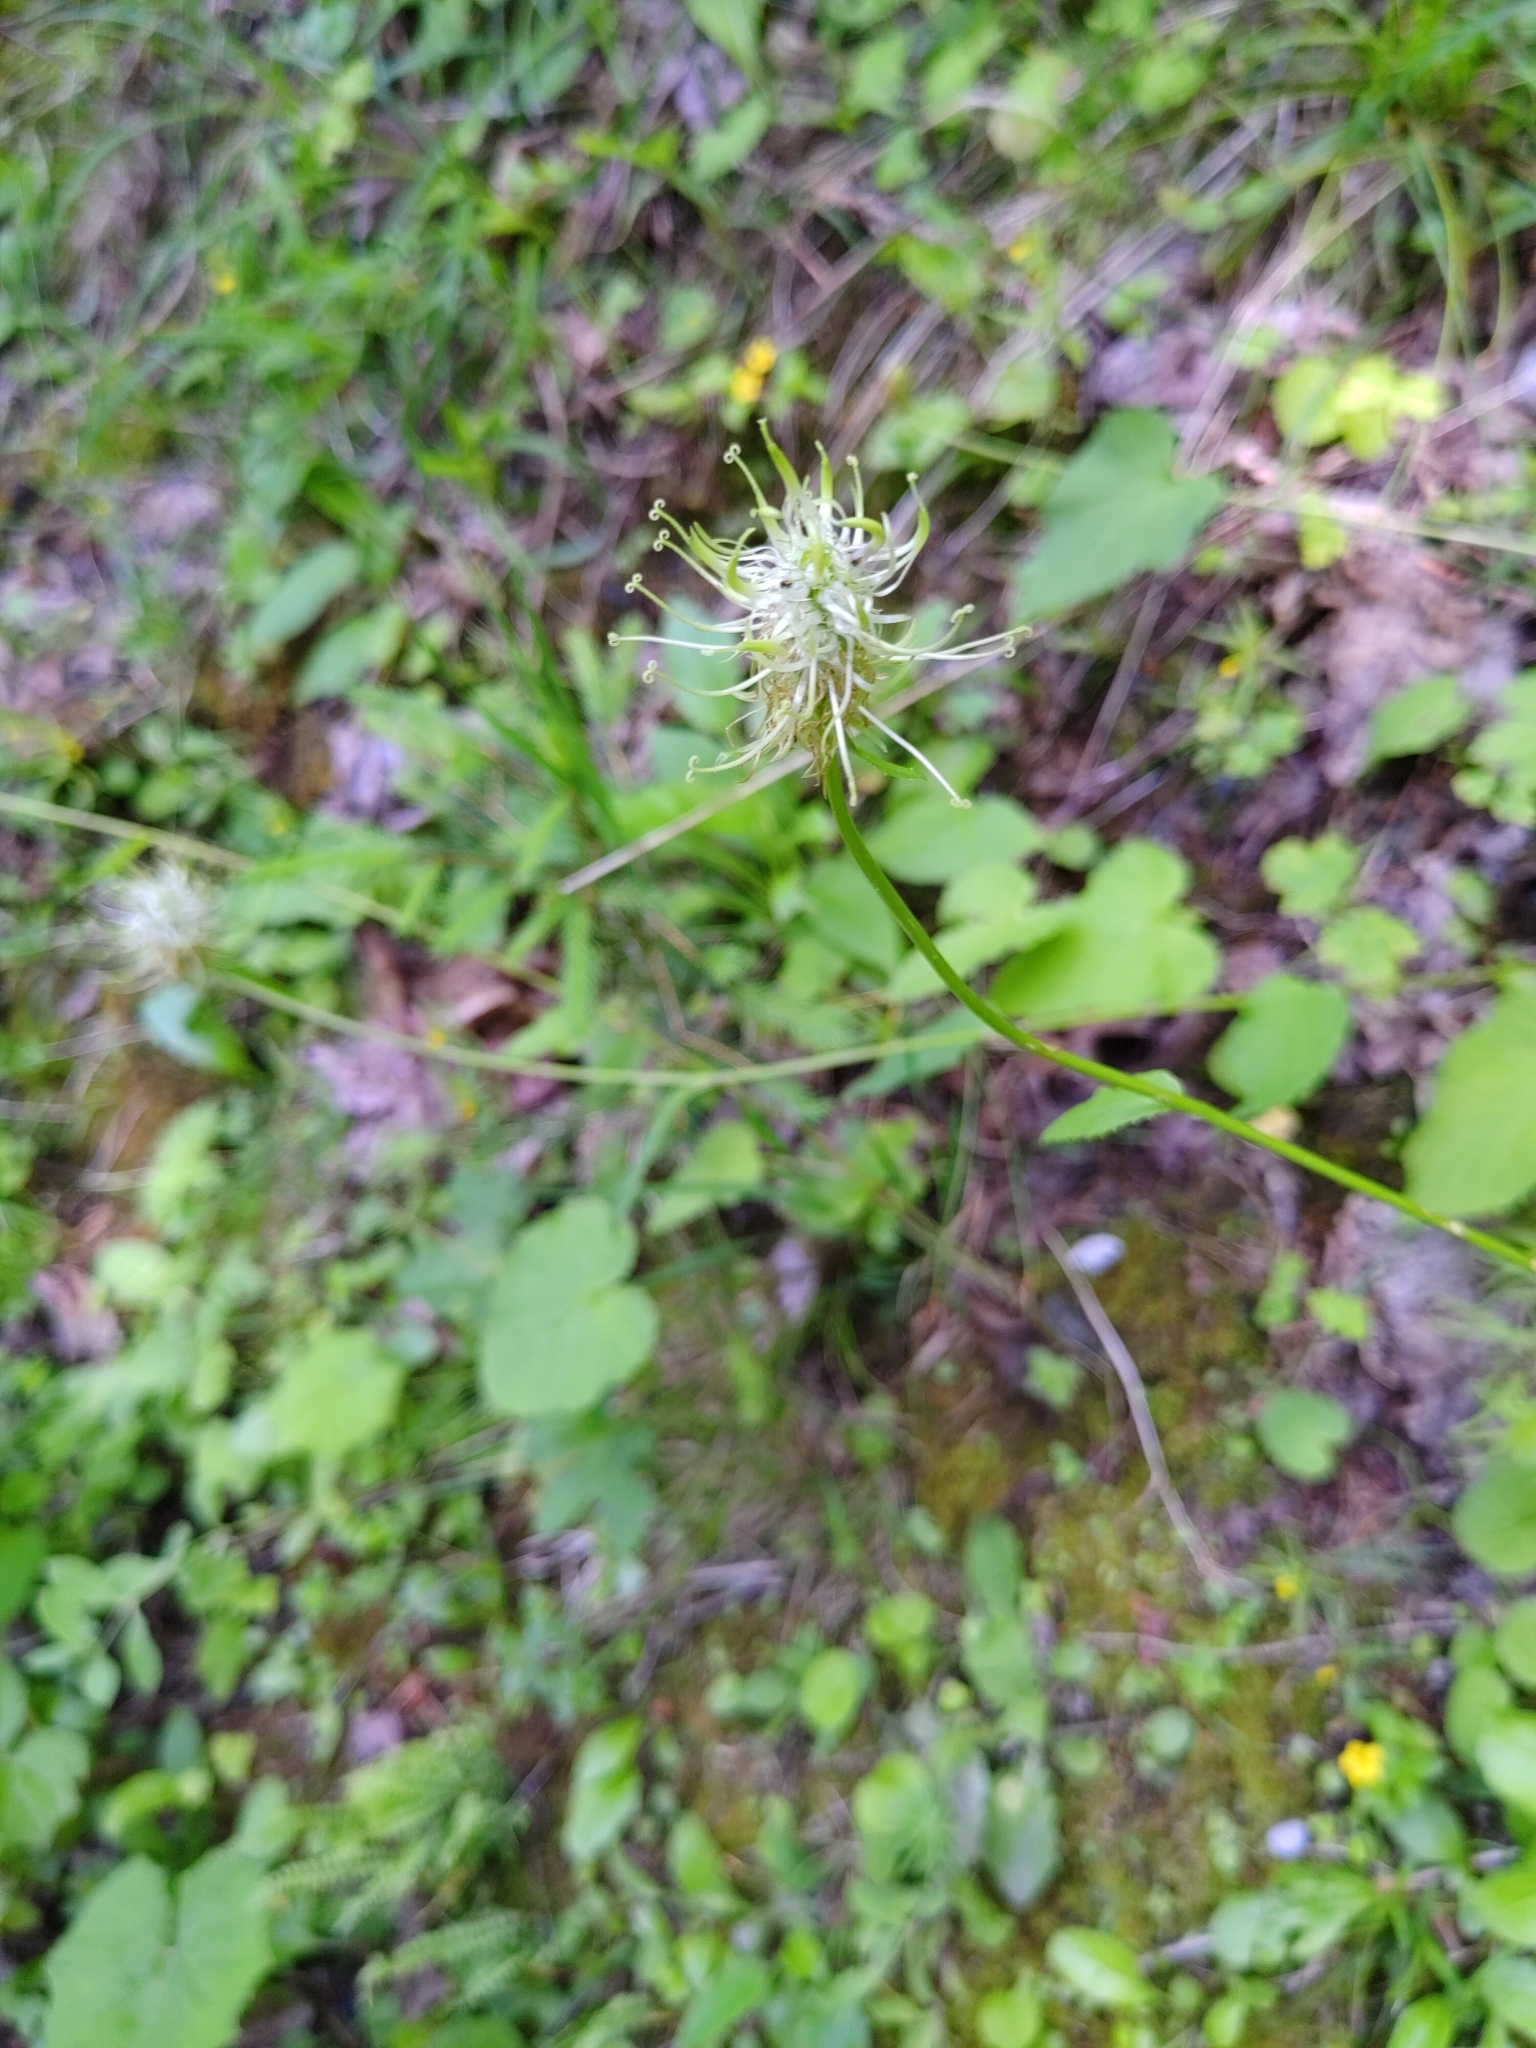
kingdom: Plantae
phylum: Tracheophyta
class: Magnoliopsida
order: Asterales
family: Campanulaceae
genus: Phyteuma
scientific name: Phyteuma spicatum
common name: Spiked rampion
